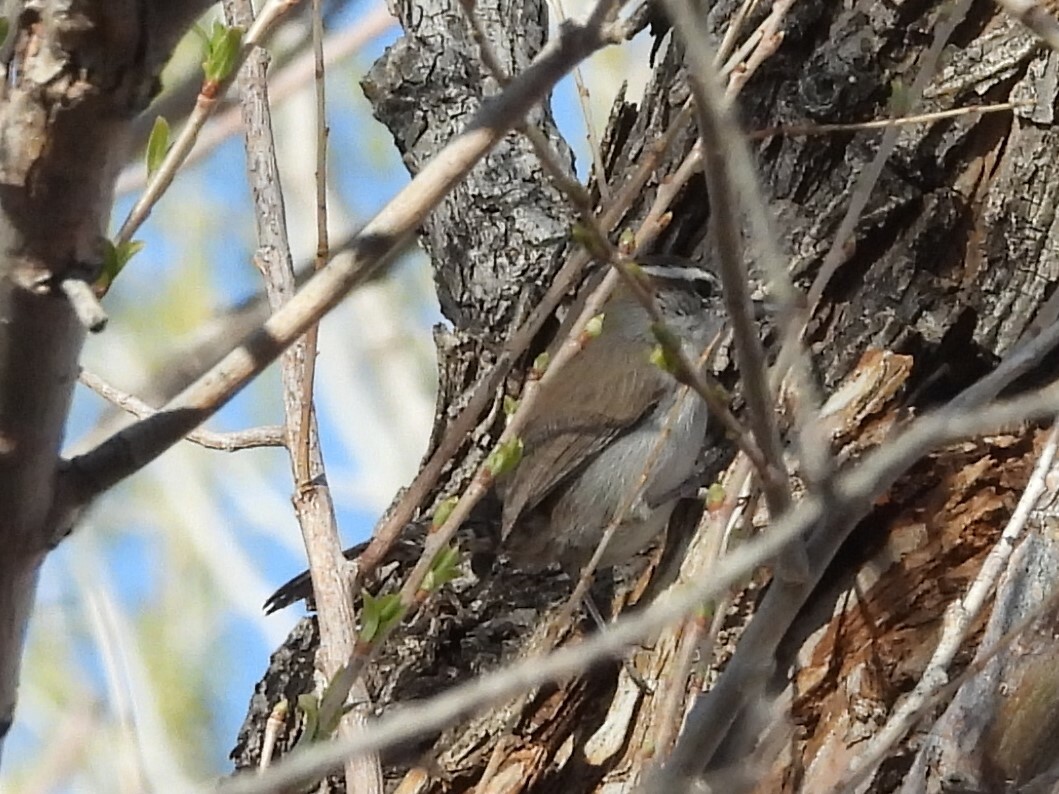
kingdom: Animalia
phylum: Chordata
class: Aves
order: Passeriformes
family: Troglodytidae
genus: Thryomanes
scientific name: Thryomanes bewickii
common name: Bewick's wren
